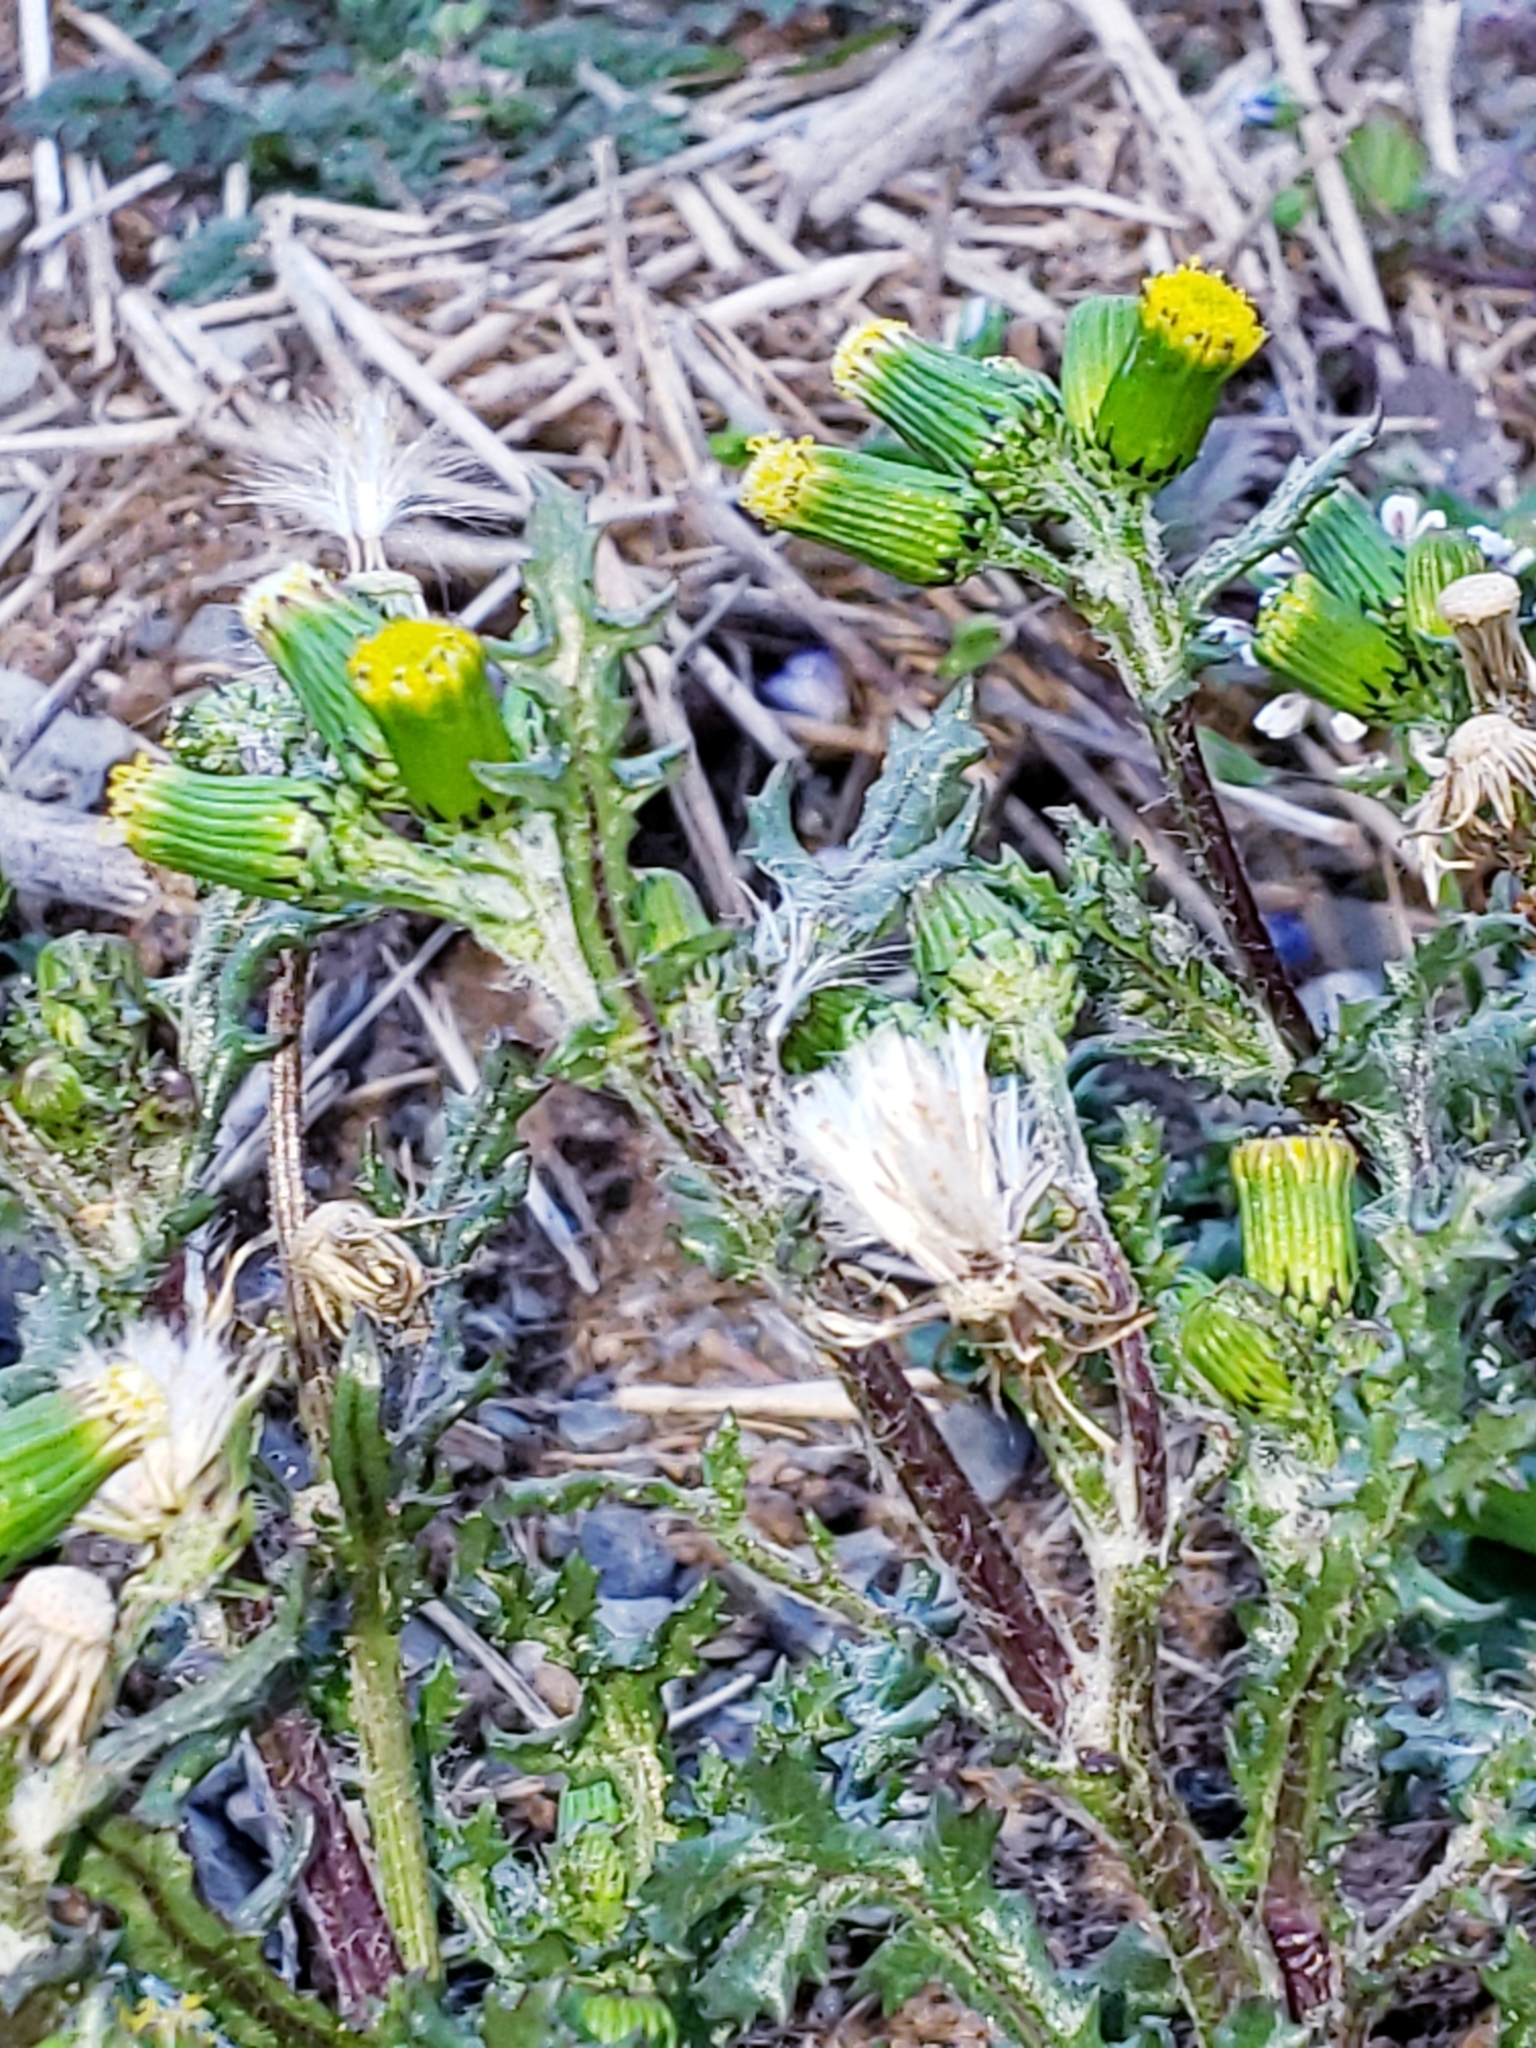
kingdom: Plantae
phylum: Tracheophyta
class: Magnoliopsida
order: Asterales
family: Asteraceae
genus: Senecio
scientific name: Senecio vulgaris
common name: Old-man-in-the-spring
